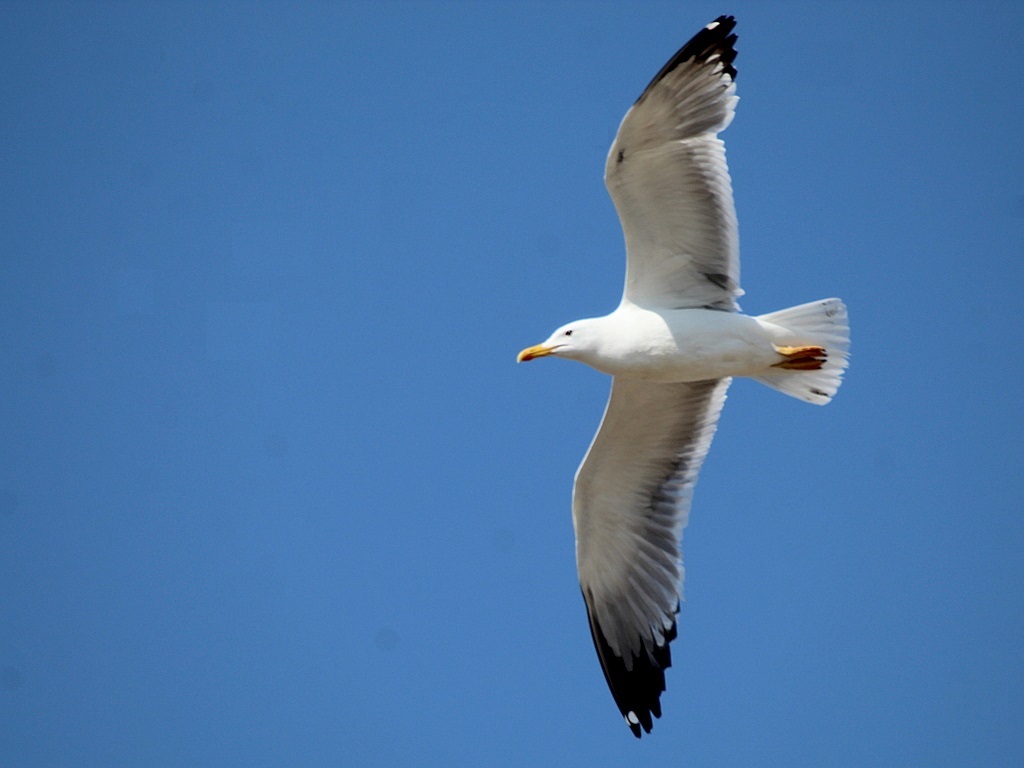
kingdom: Animalia
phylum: Chordata
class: Aves
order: Charadriiformes
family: Laridae
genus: Larus
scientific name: Larus fuscus
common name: Lesser black-backed gull
